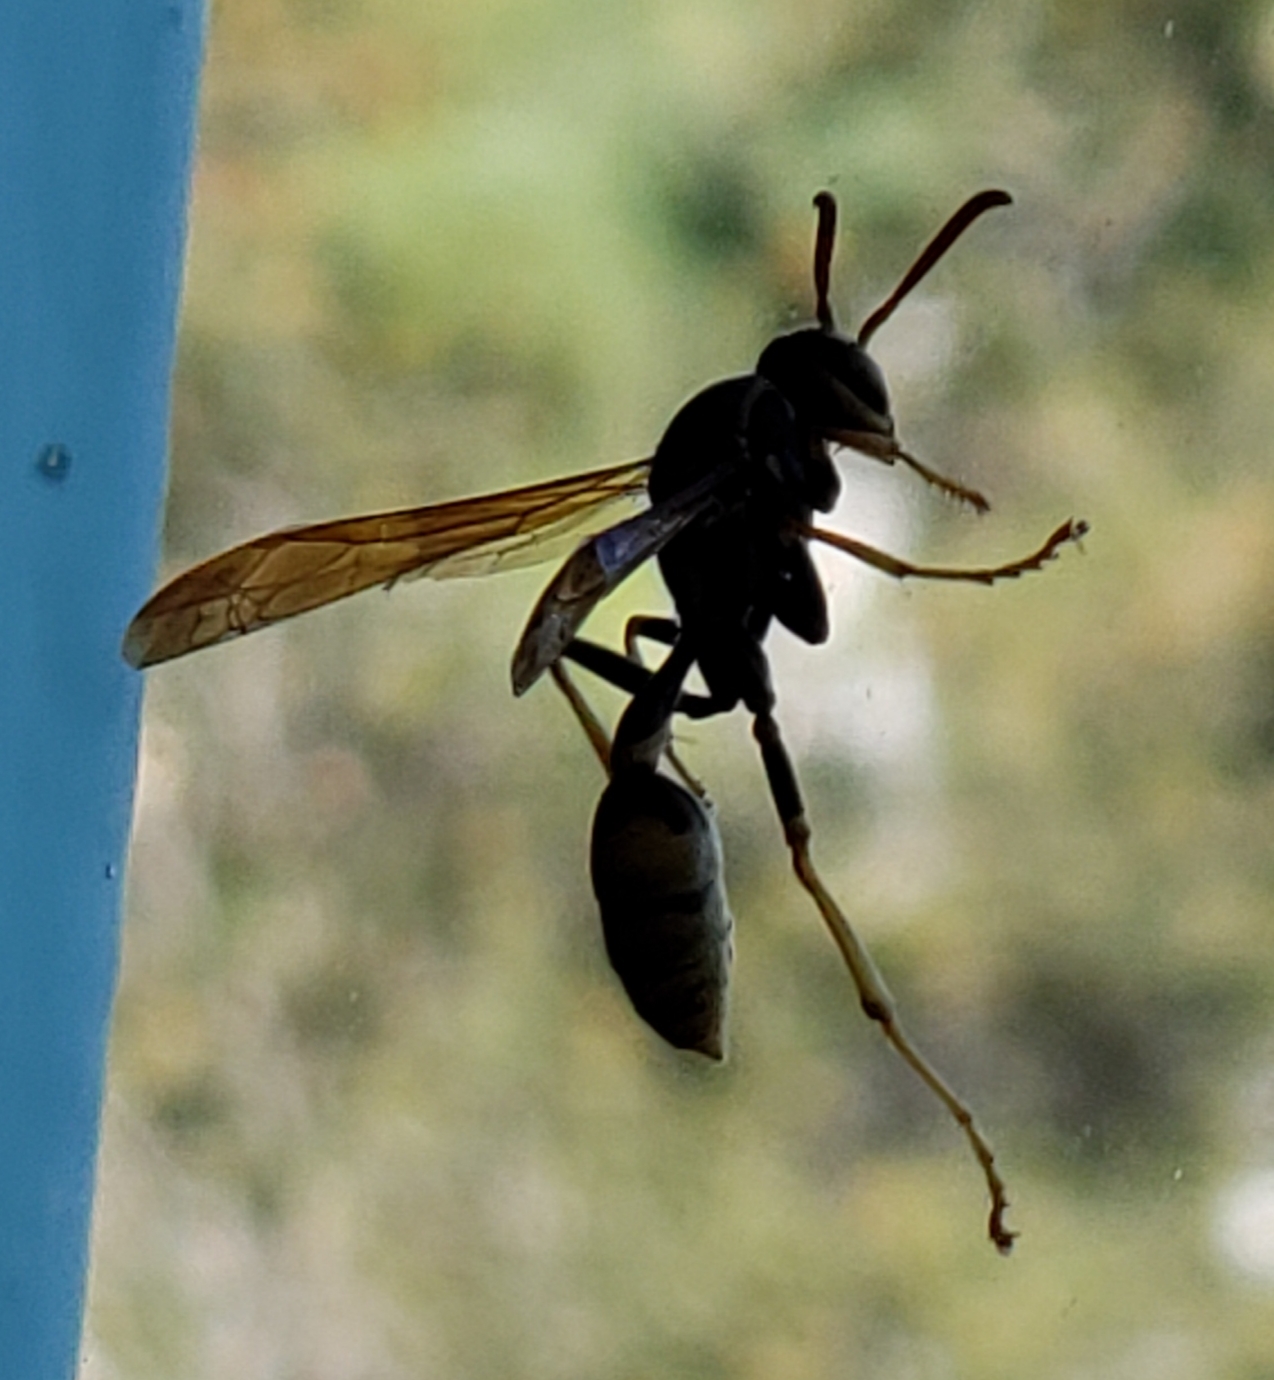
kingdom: Animalia
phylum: Arthropoda
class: Insecta
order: Hymenoptera
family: Vespidae
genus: Mischocyttarus
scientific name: Mischocyttarus flavitarsis
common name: Wasp
